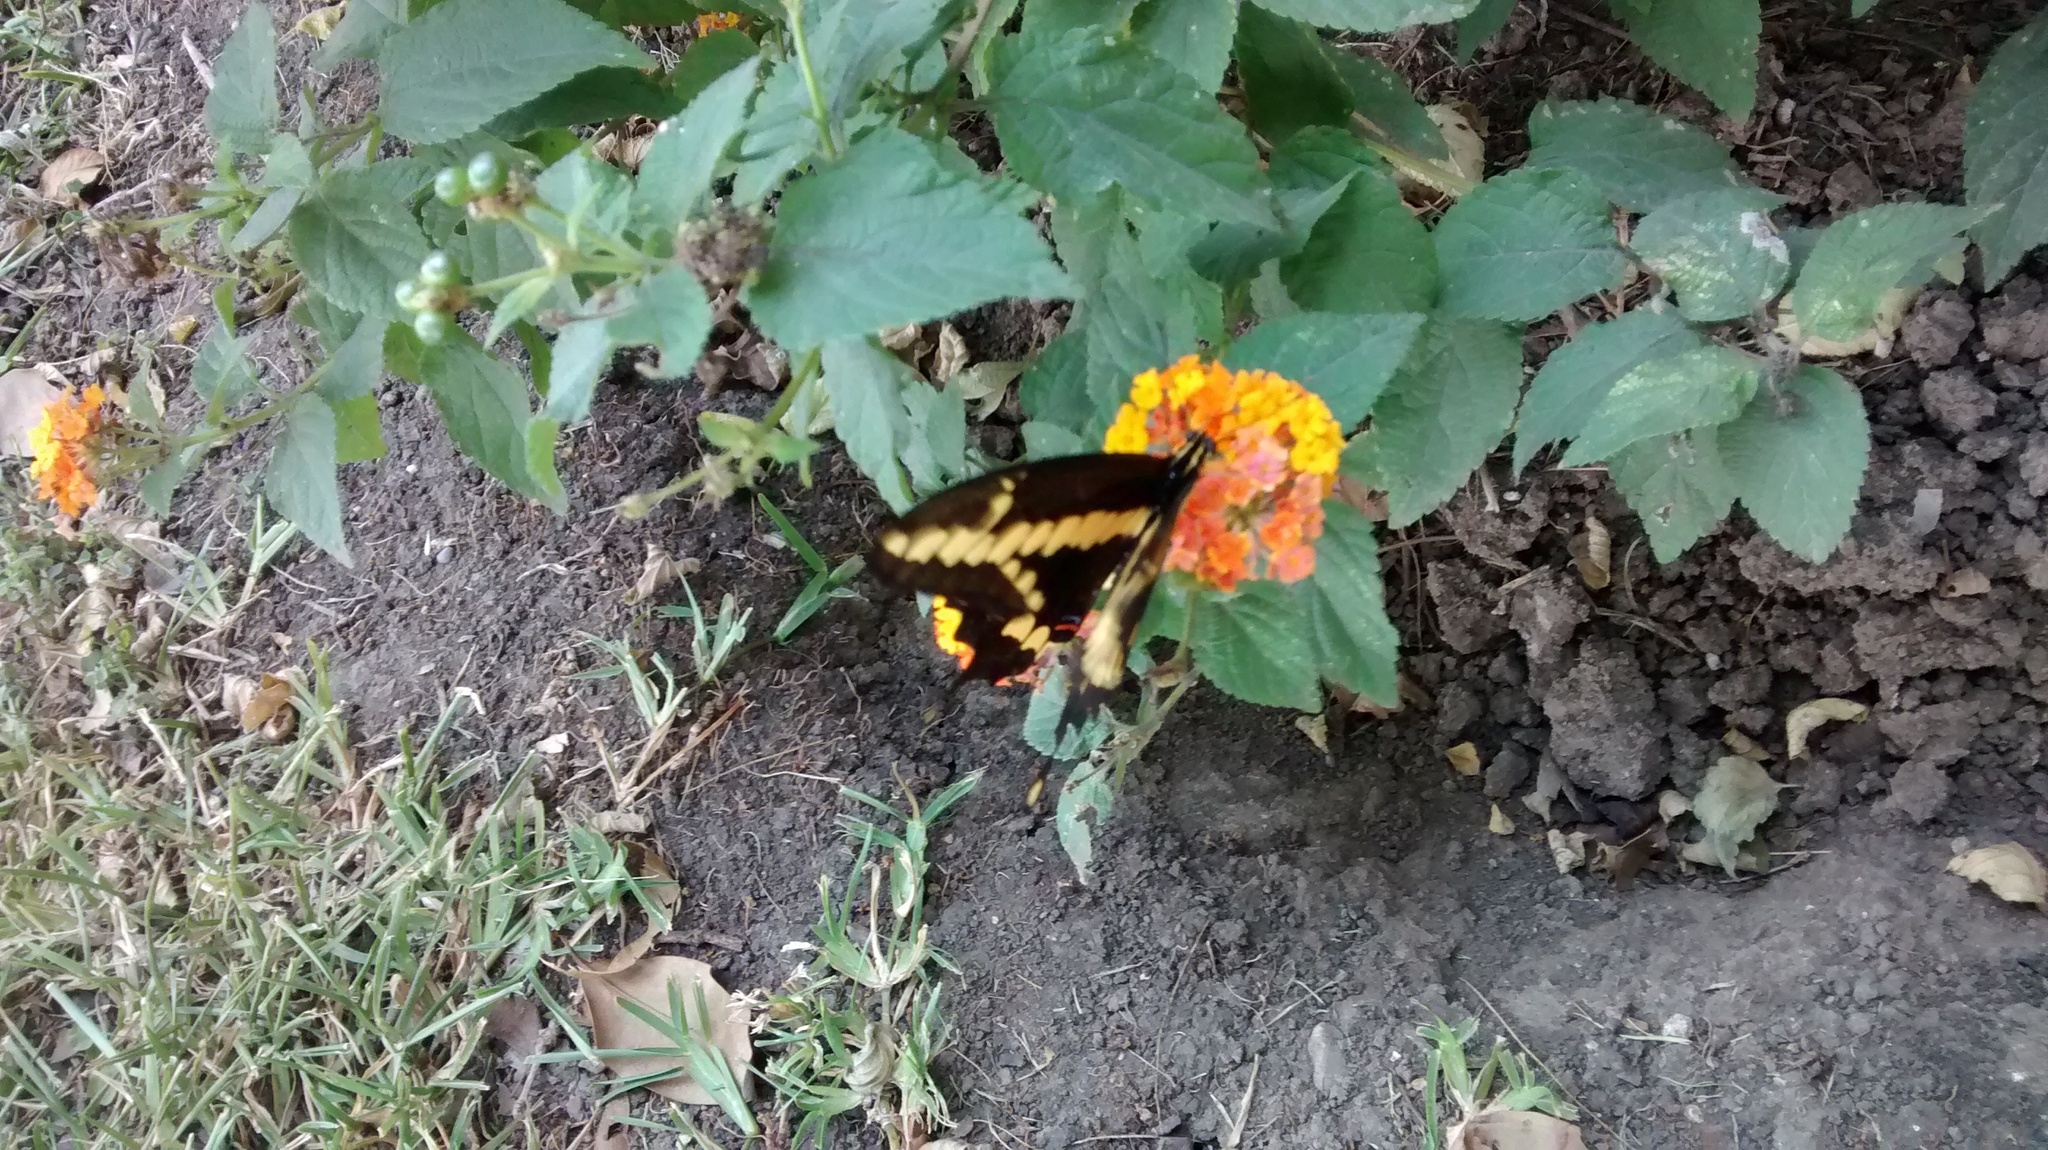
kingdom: Animalia
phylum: Arthropoda
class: Insecta
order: Lepidoptera
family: Papilionidae
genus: Papilio
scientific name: Papilio rumiko
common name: Western giant swallowtail
